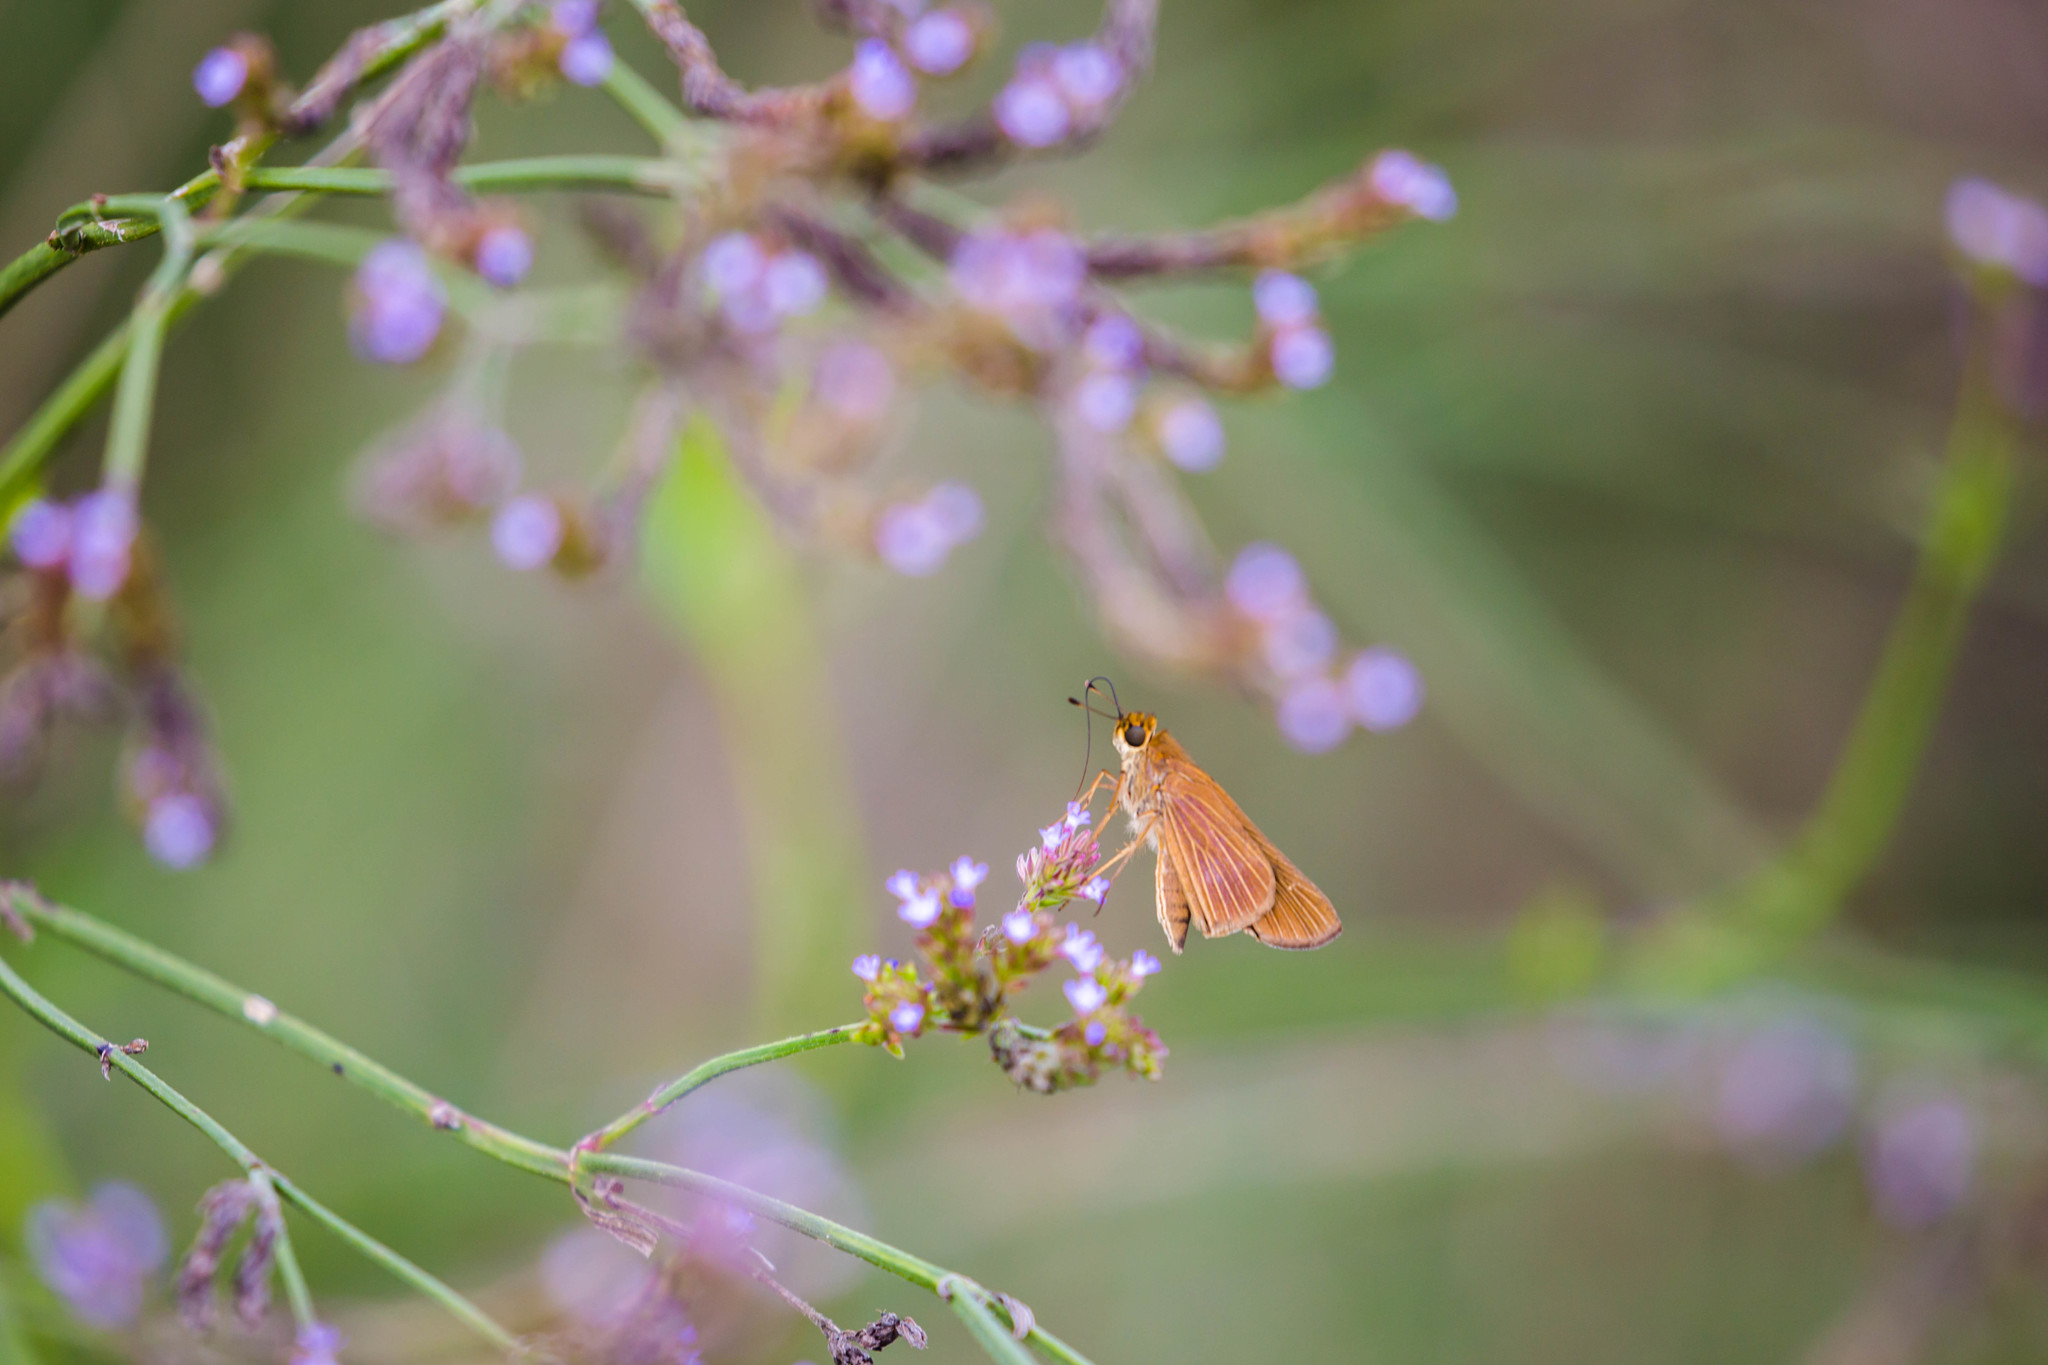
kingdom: Animalia
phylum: Arthropoda
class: Insecta
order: Lepidoptera
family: Hesperiidae
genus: Panoquina
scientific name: Panoquina ocola
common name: Ocola skipper
